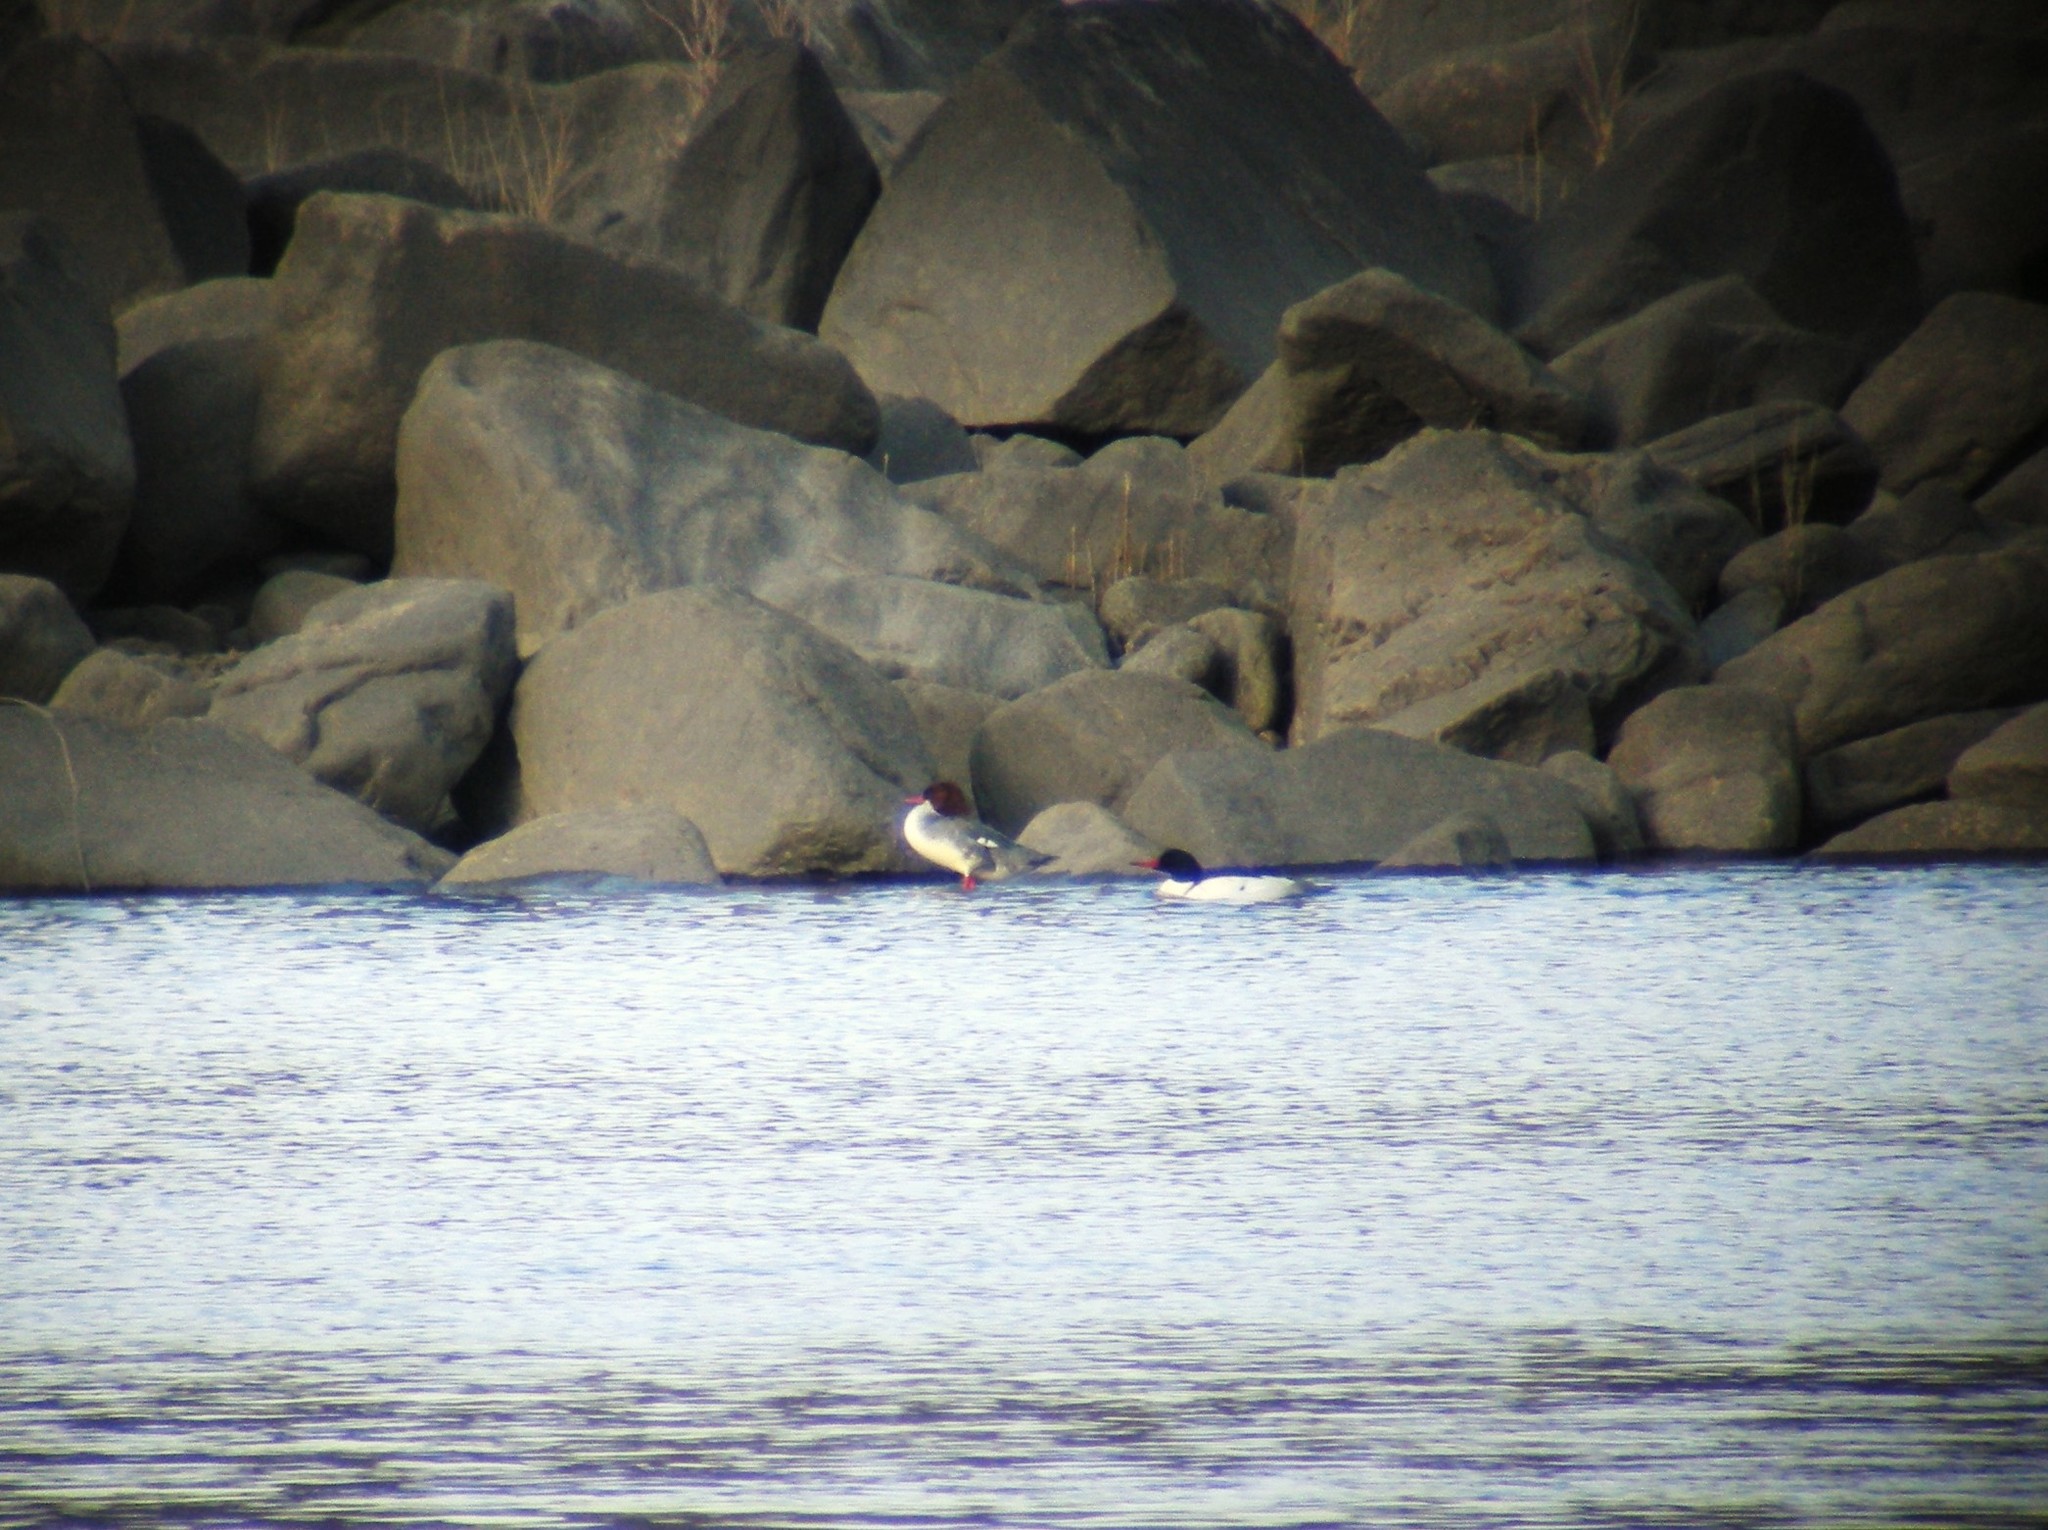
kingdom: Animalia
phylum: Chordata
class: Aves
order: Anseriformes
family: Anatidae
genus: Mergus
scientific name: Mergus merganser
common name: Common merganser
